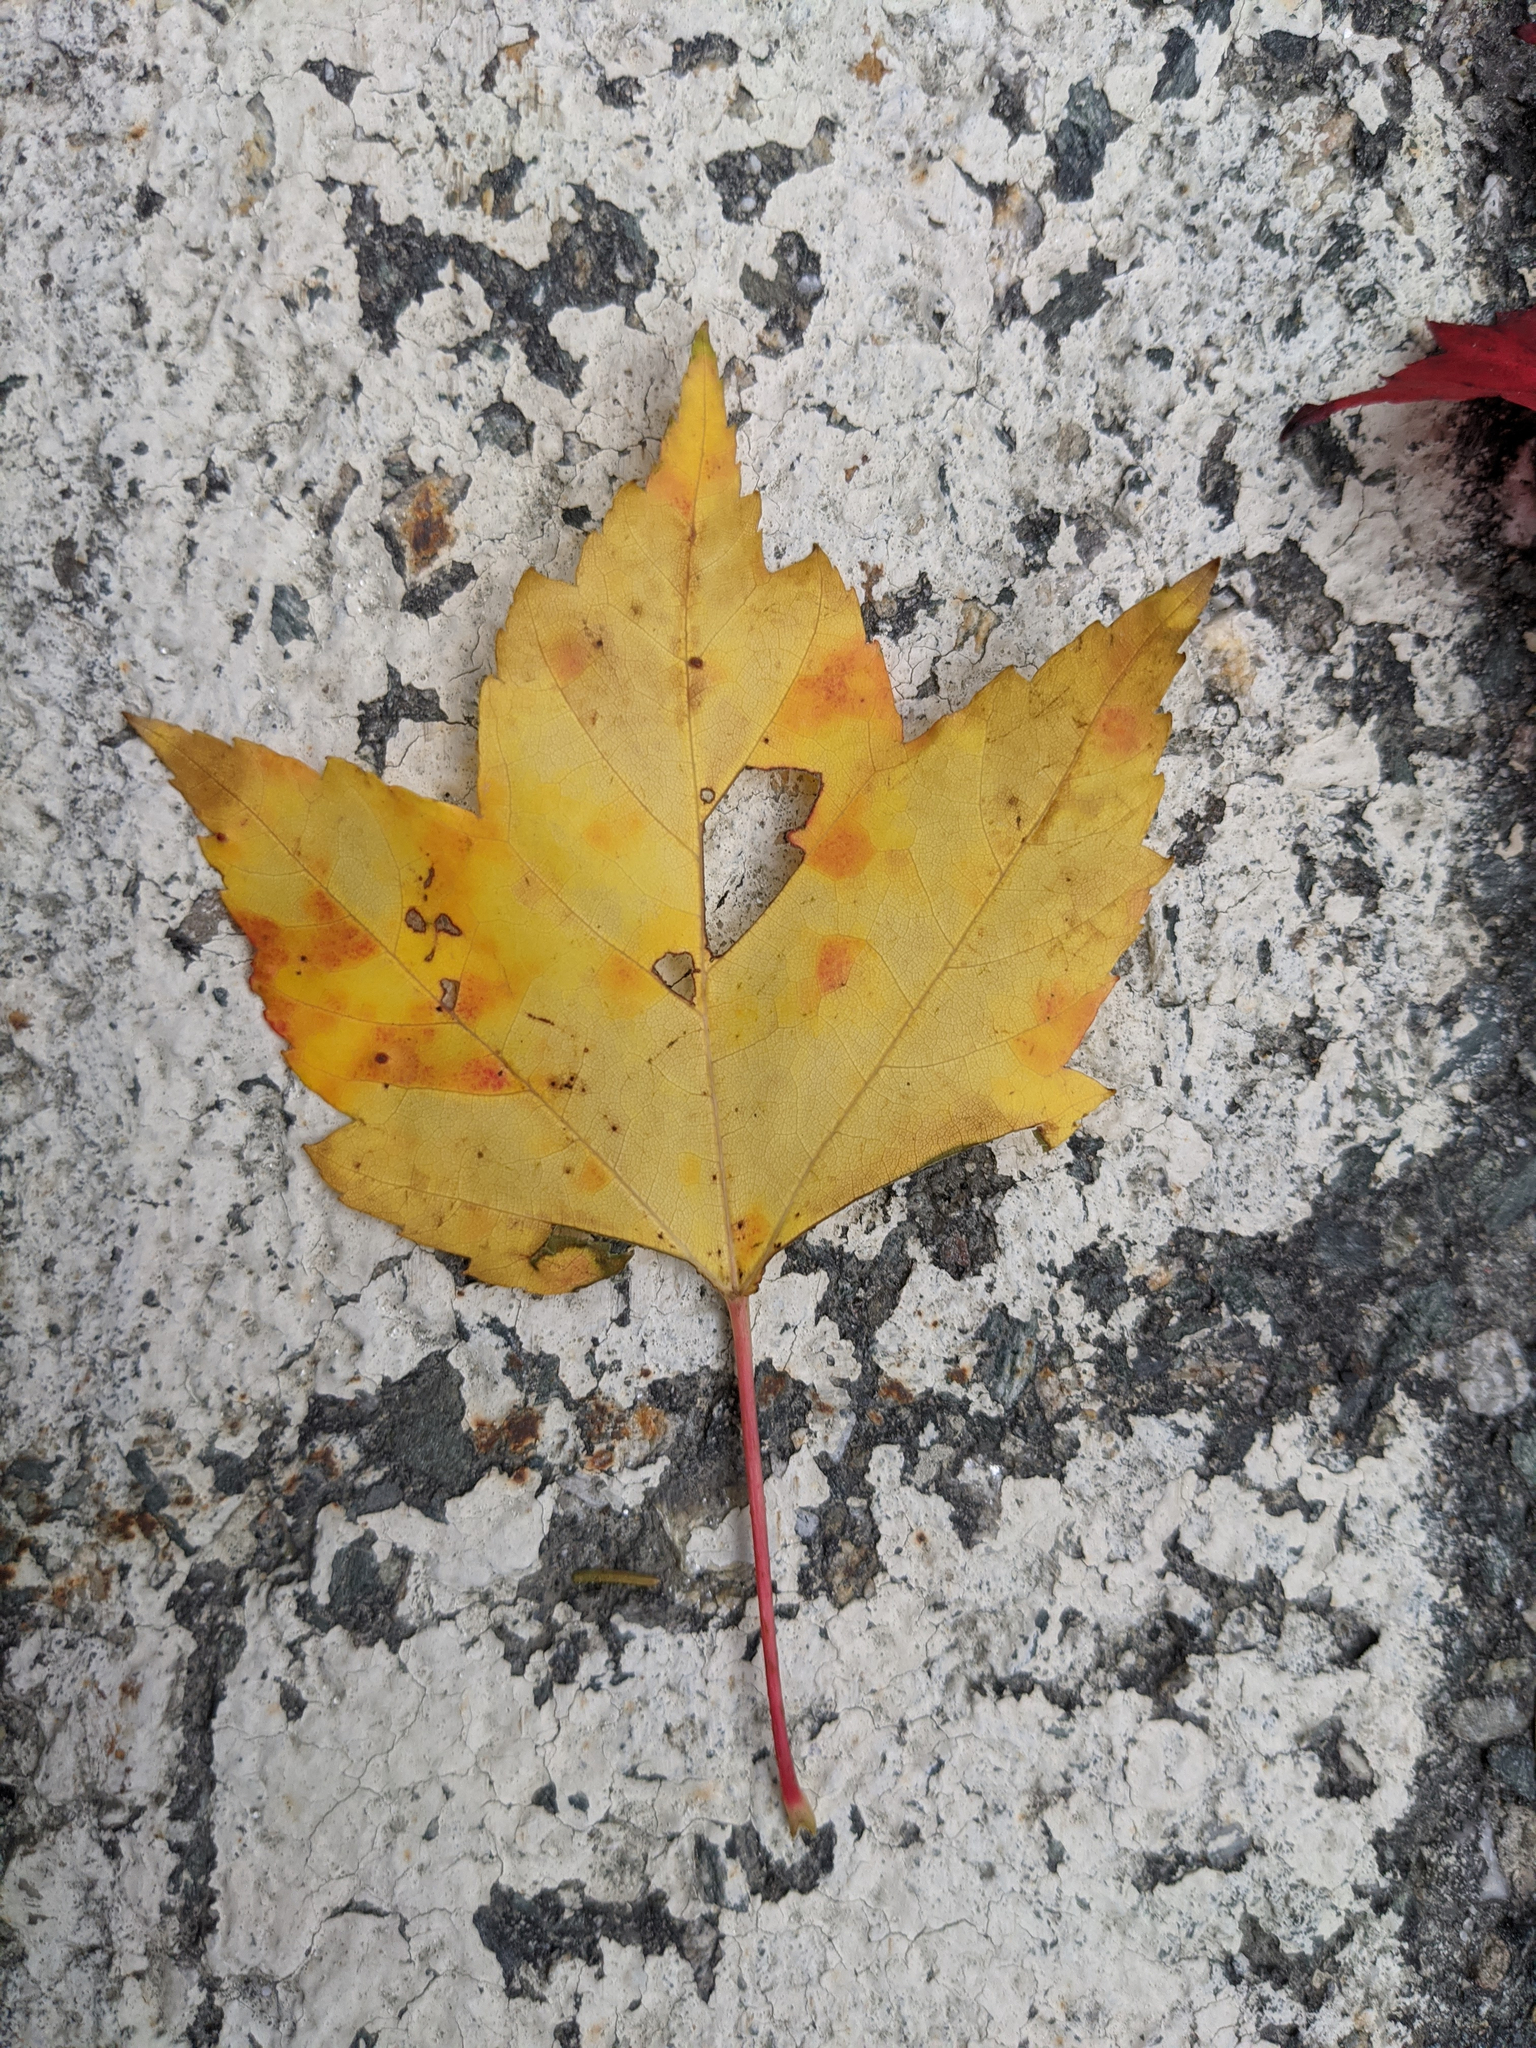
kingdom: Plantae
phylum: Tracheophyta
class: Magnoliopsida
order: Sapindales
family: Sapindaceae
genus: Acer
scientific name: Acer rubrum
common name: Red maple
